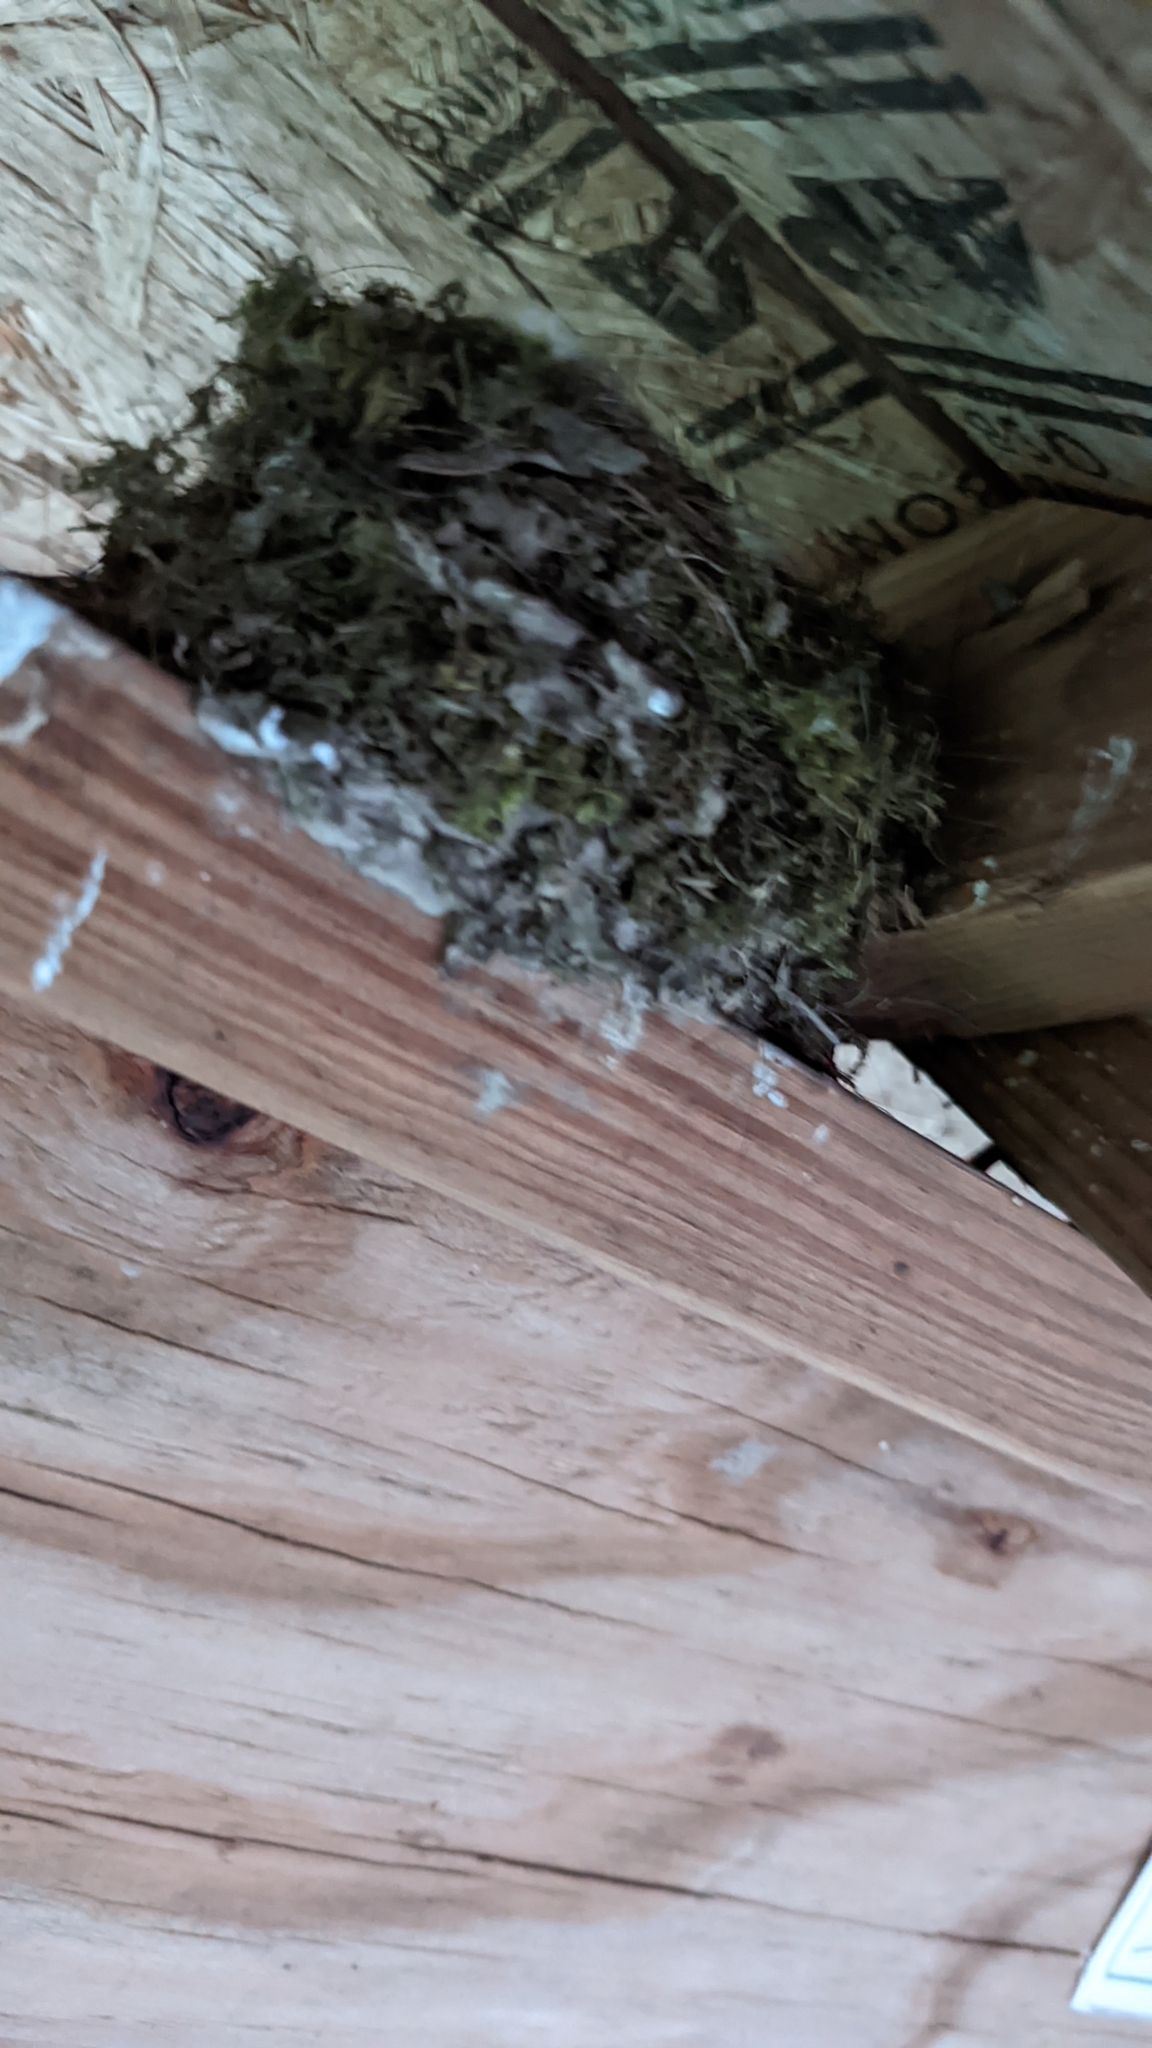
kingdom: Animalia
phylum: Chordata
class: Aves
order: Passeriformes
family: Tyrannidae
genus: Sayornis
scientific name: Sayornis phoebe
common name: Eastern phoebe
